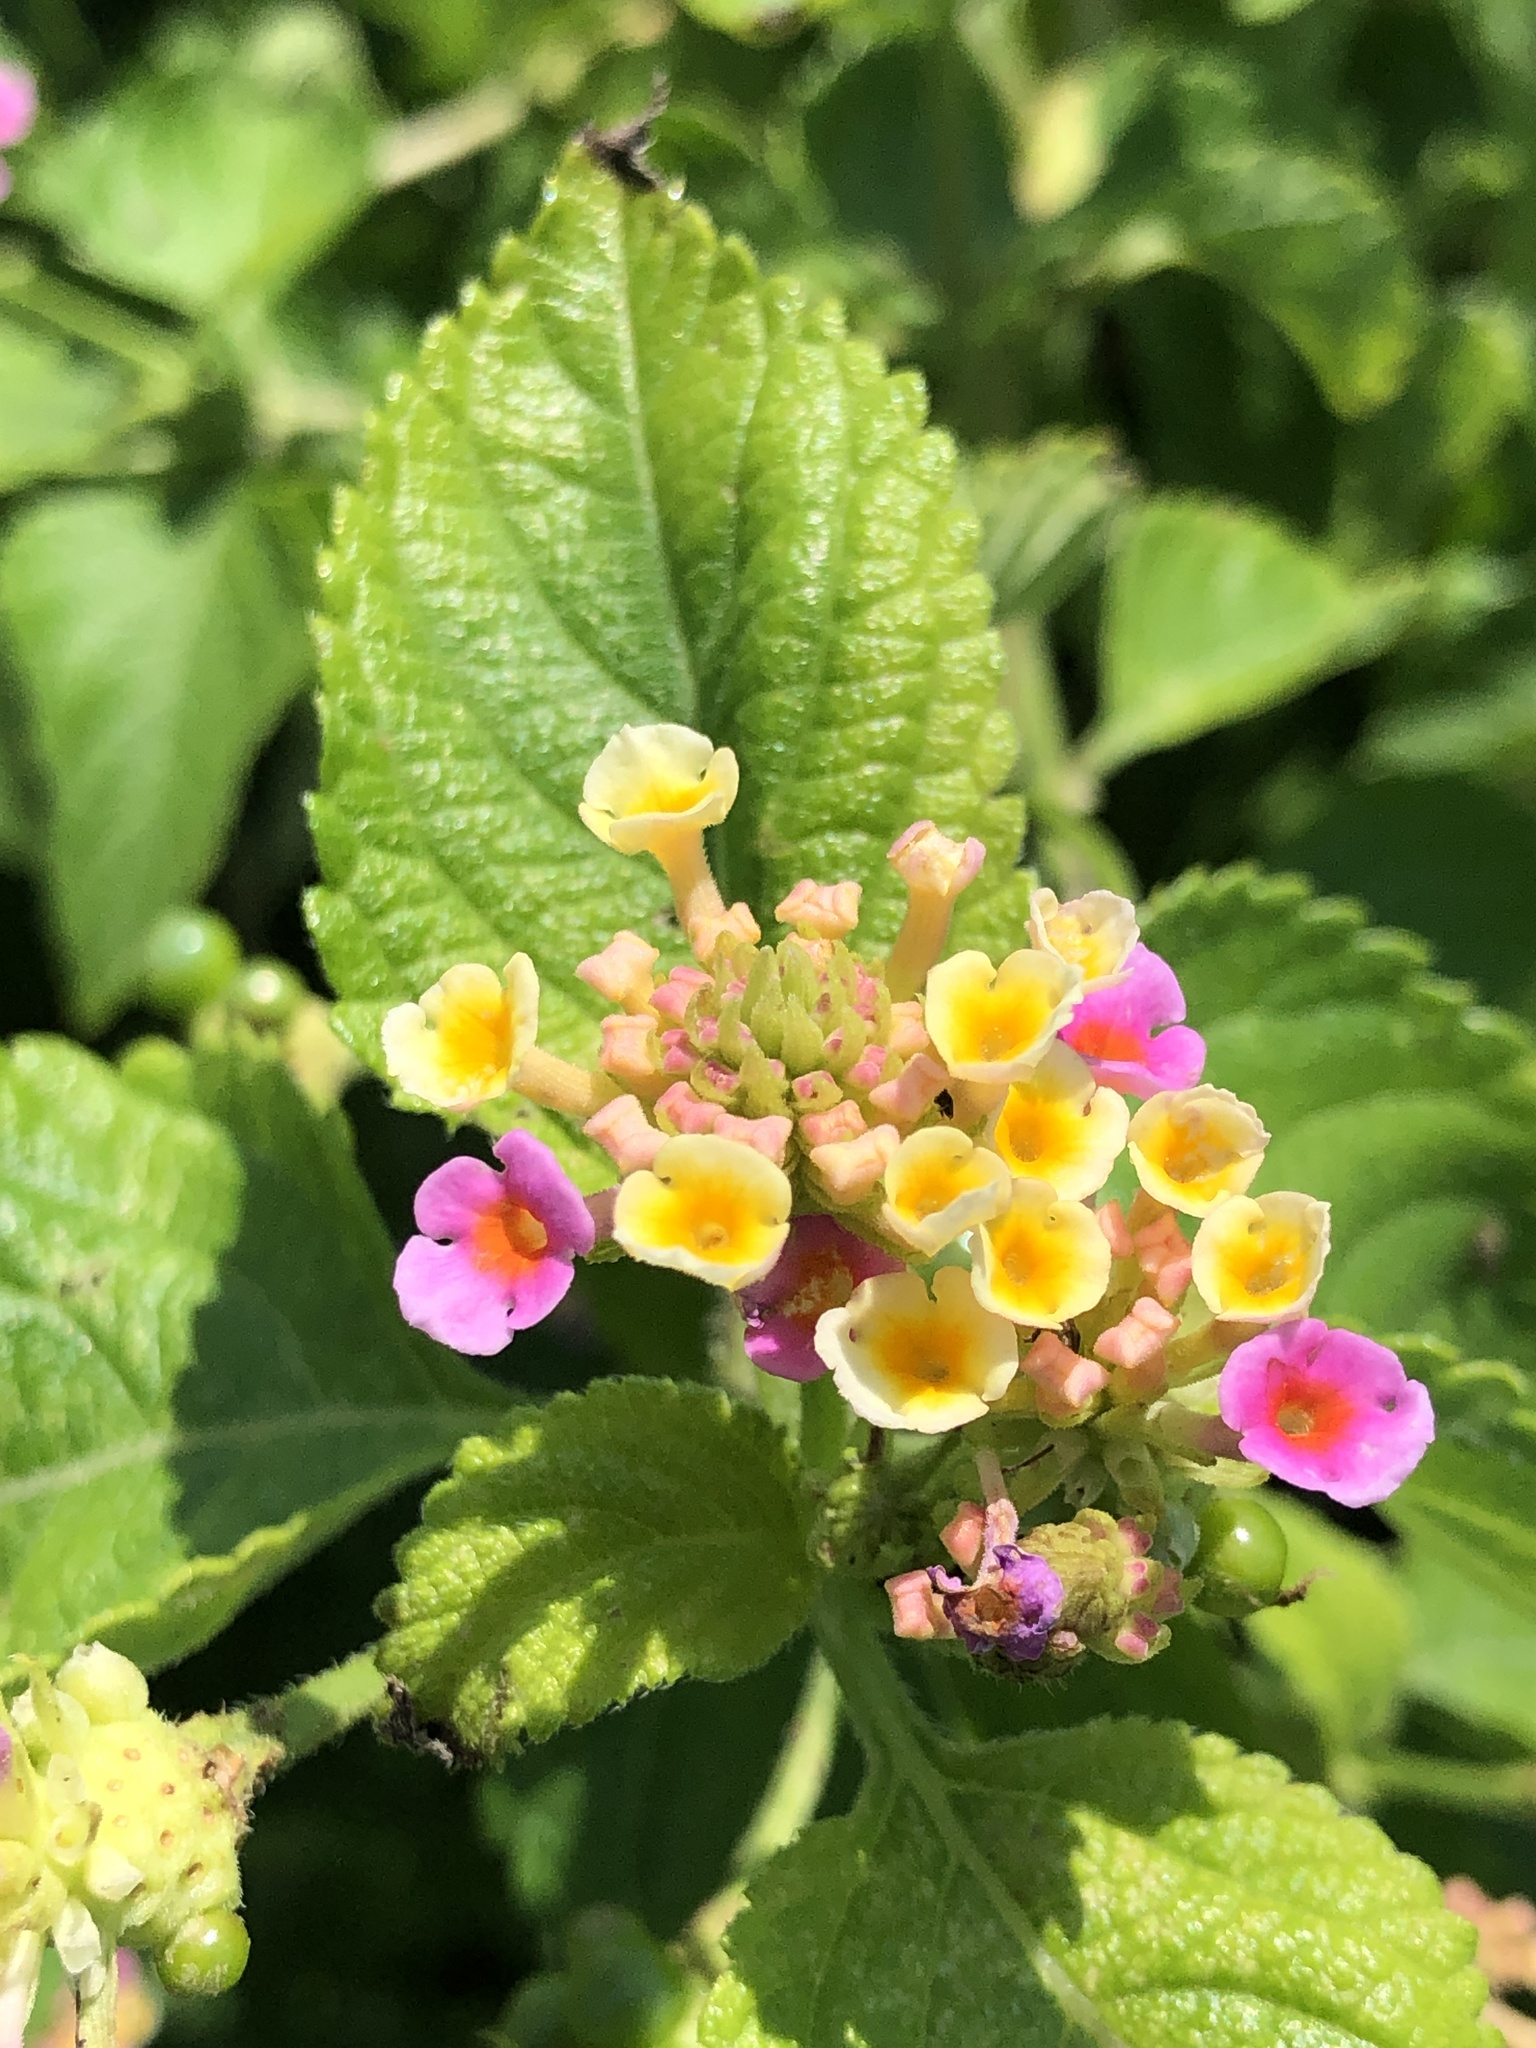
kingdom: Plantae
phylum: Tracheophyta
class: Magnoliopsida
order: Lamiales
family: Verbenaceae
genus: Lantana
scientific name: Lantana camara
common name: Lantana
